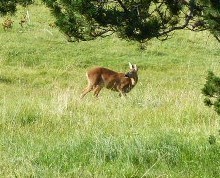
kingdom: Animalia
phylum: Chordata
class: Mammalia
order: Artiodactyla
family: Cervidae
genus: Capreolus
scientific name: Capreolus capreolus
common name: Western roe deer
